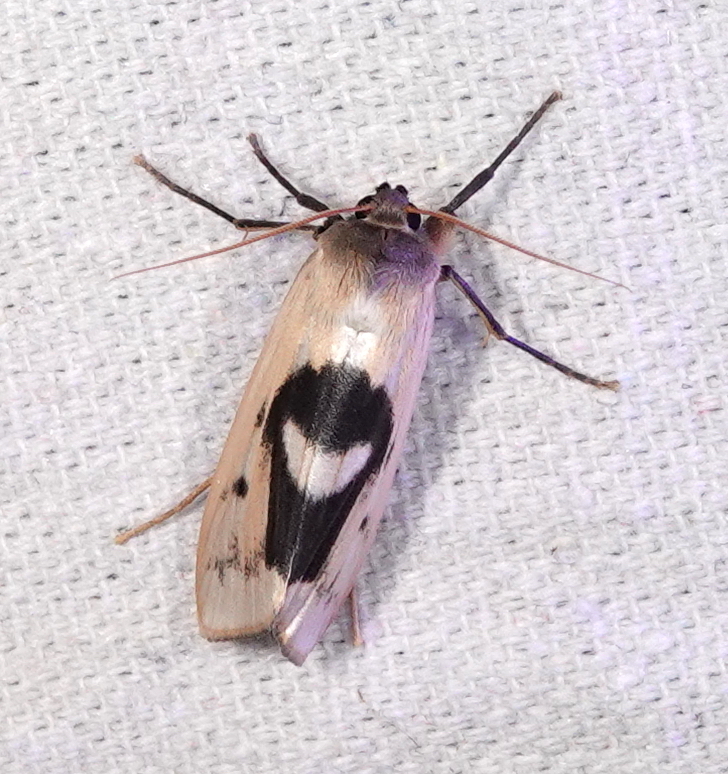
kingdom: Animalia
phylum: Arthropoda
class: Insecta
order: Lepidoptera
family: Erebidae
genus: Agylla
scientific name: Agylla nitidalis
